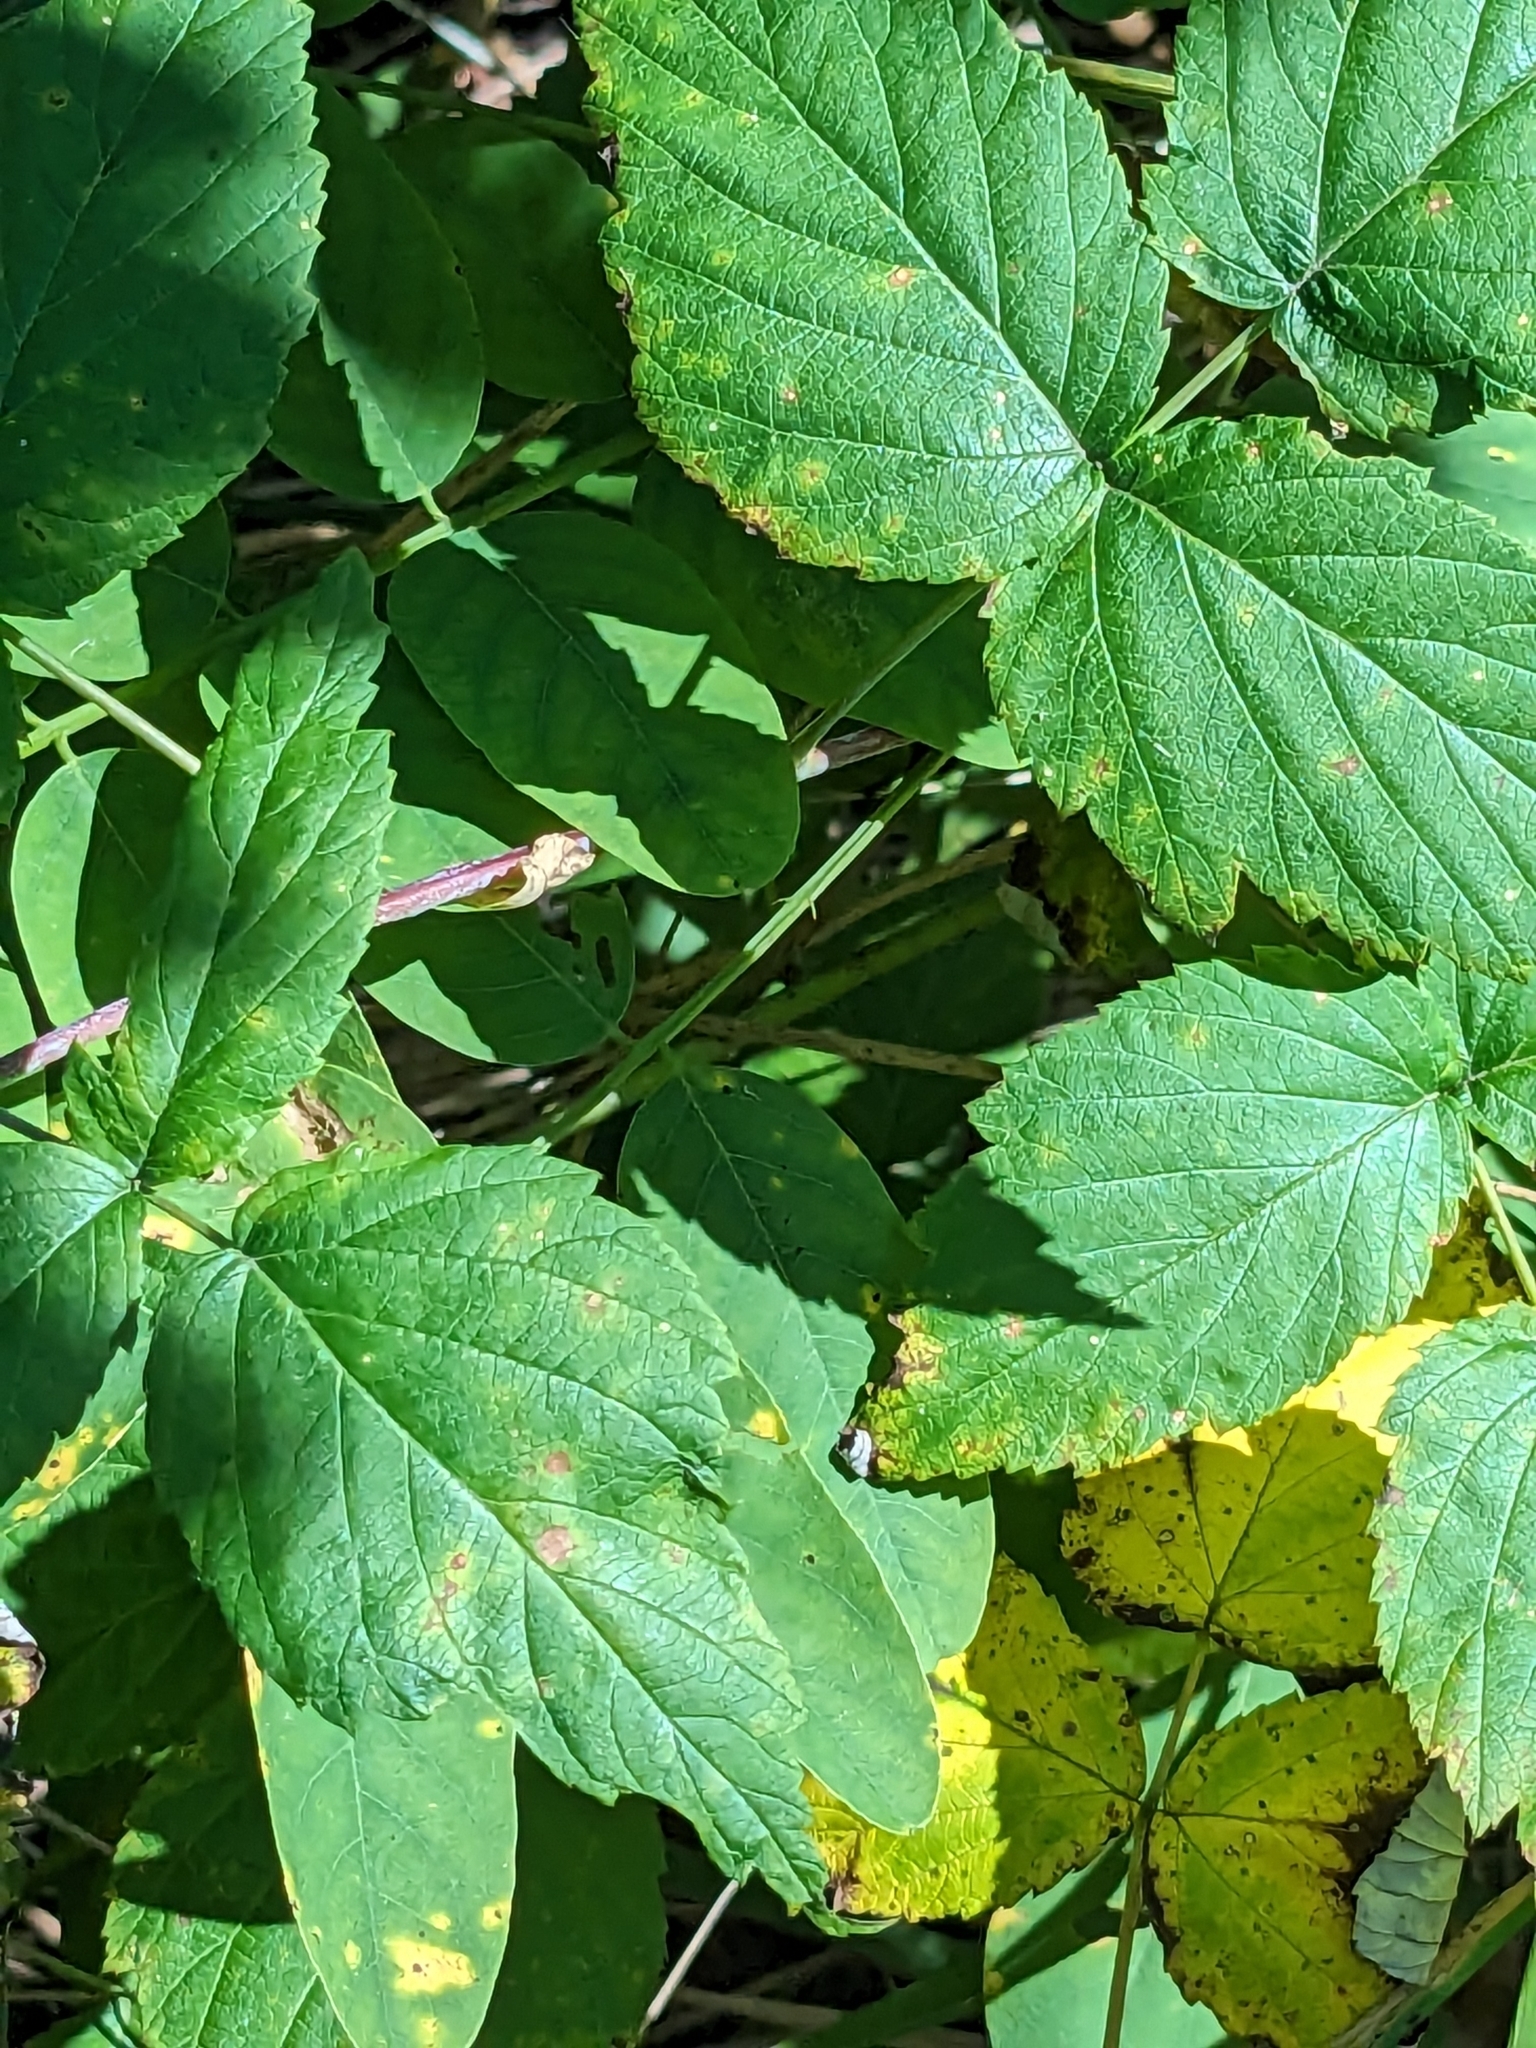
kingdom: Plantae
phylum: Tracheophyta
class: Magnoliopsida
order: Rosales
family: Rosaceae
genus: Rubus
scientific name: Rubus occidentalis
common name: Black raspberry
